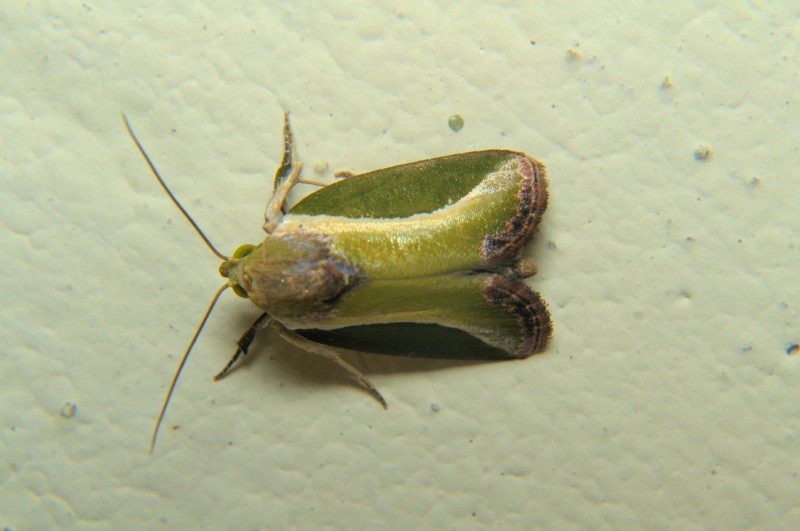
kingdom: Animalia
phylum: Arthropoda
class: Insecta
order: Lepidoptera
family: Nolidae
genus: Ariola
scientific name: Ariola coelisigna
